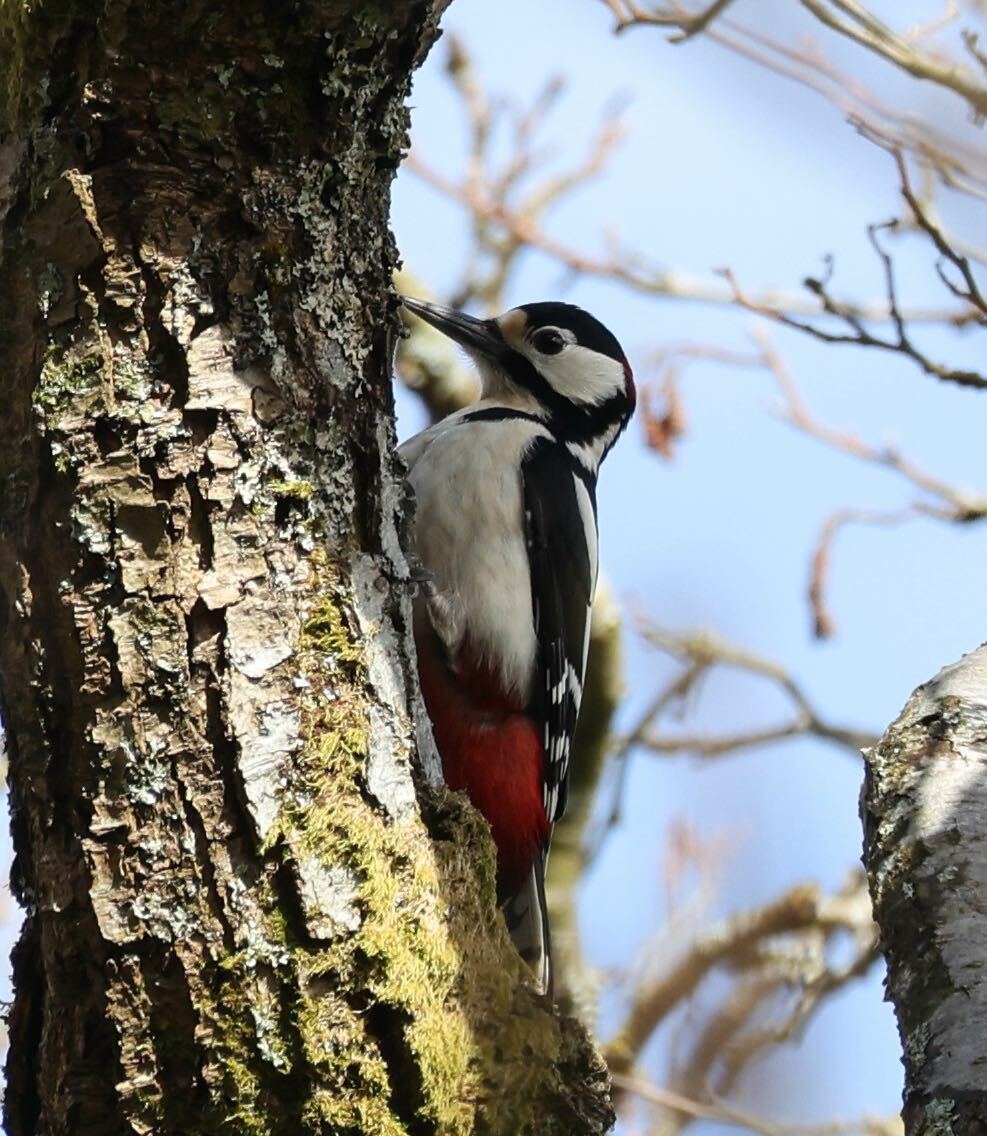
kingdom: Animalia
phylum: Chordata
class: Aves
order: Piciformes
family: Picidae
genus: Dendrocopos
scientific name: Dendrocopos major
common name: Great spotted woodpecker
